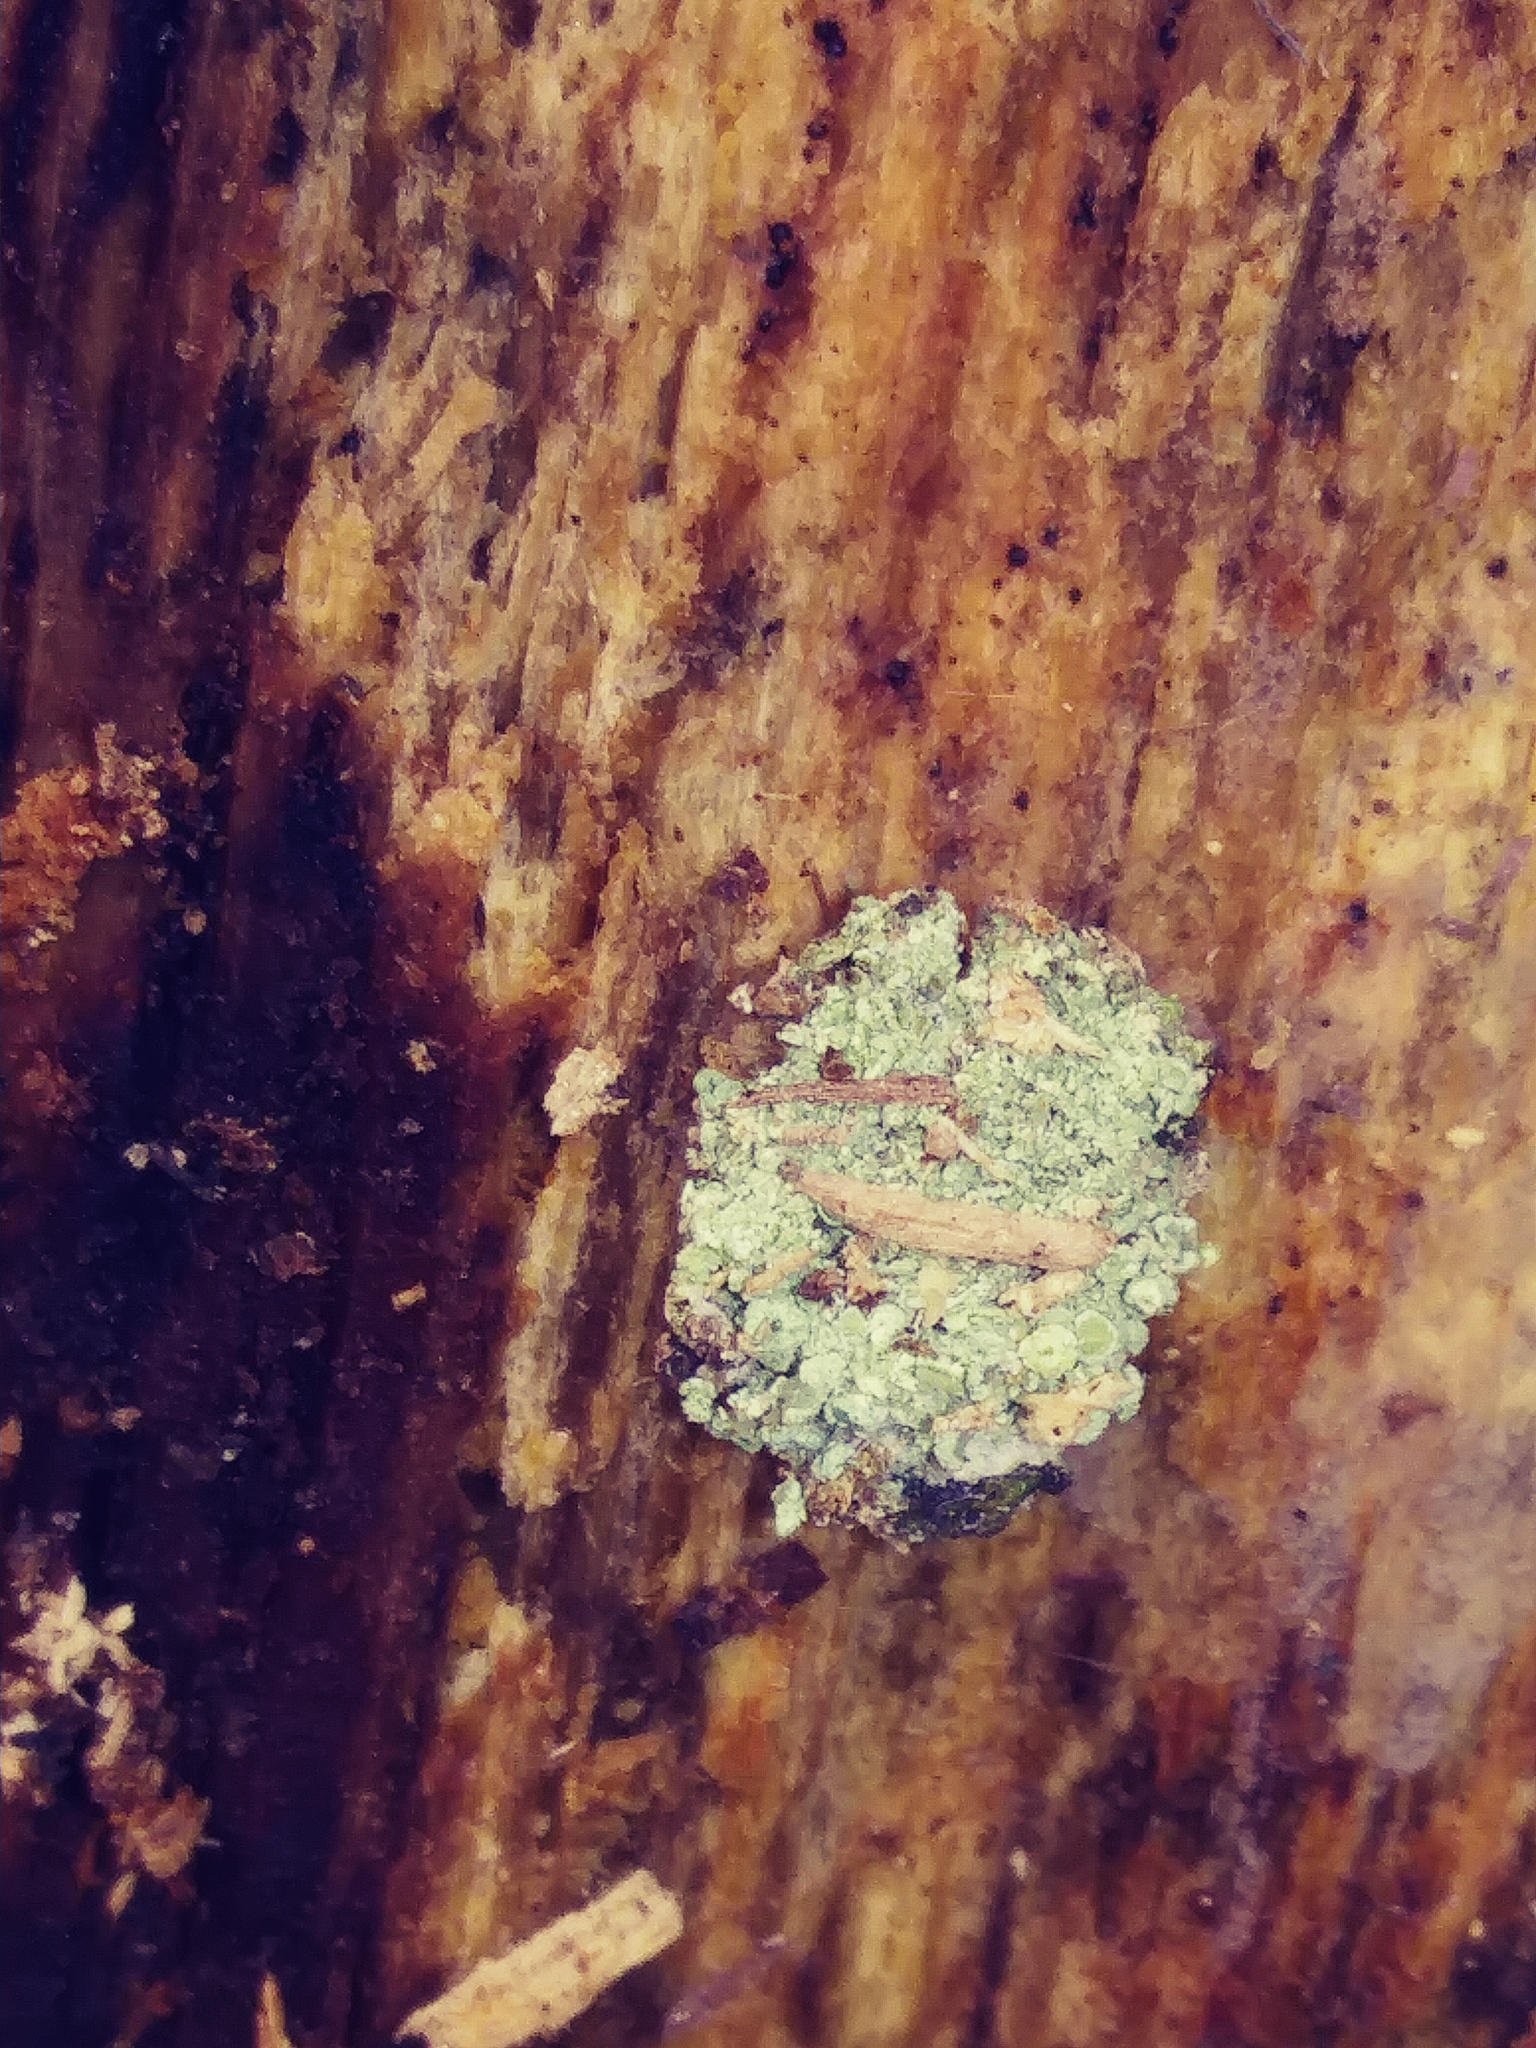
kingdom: Animalia
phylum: Arthropoda
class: Insecta
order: Neuroptera
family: Chrysopidae
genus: Leucochrysa
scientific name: Leucochrysa pavida
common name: Lichen-carrying green lacewing
